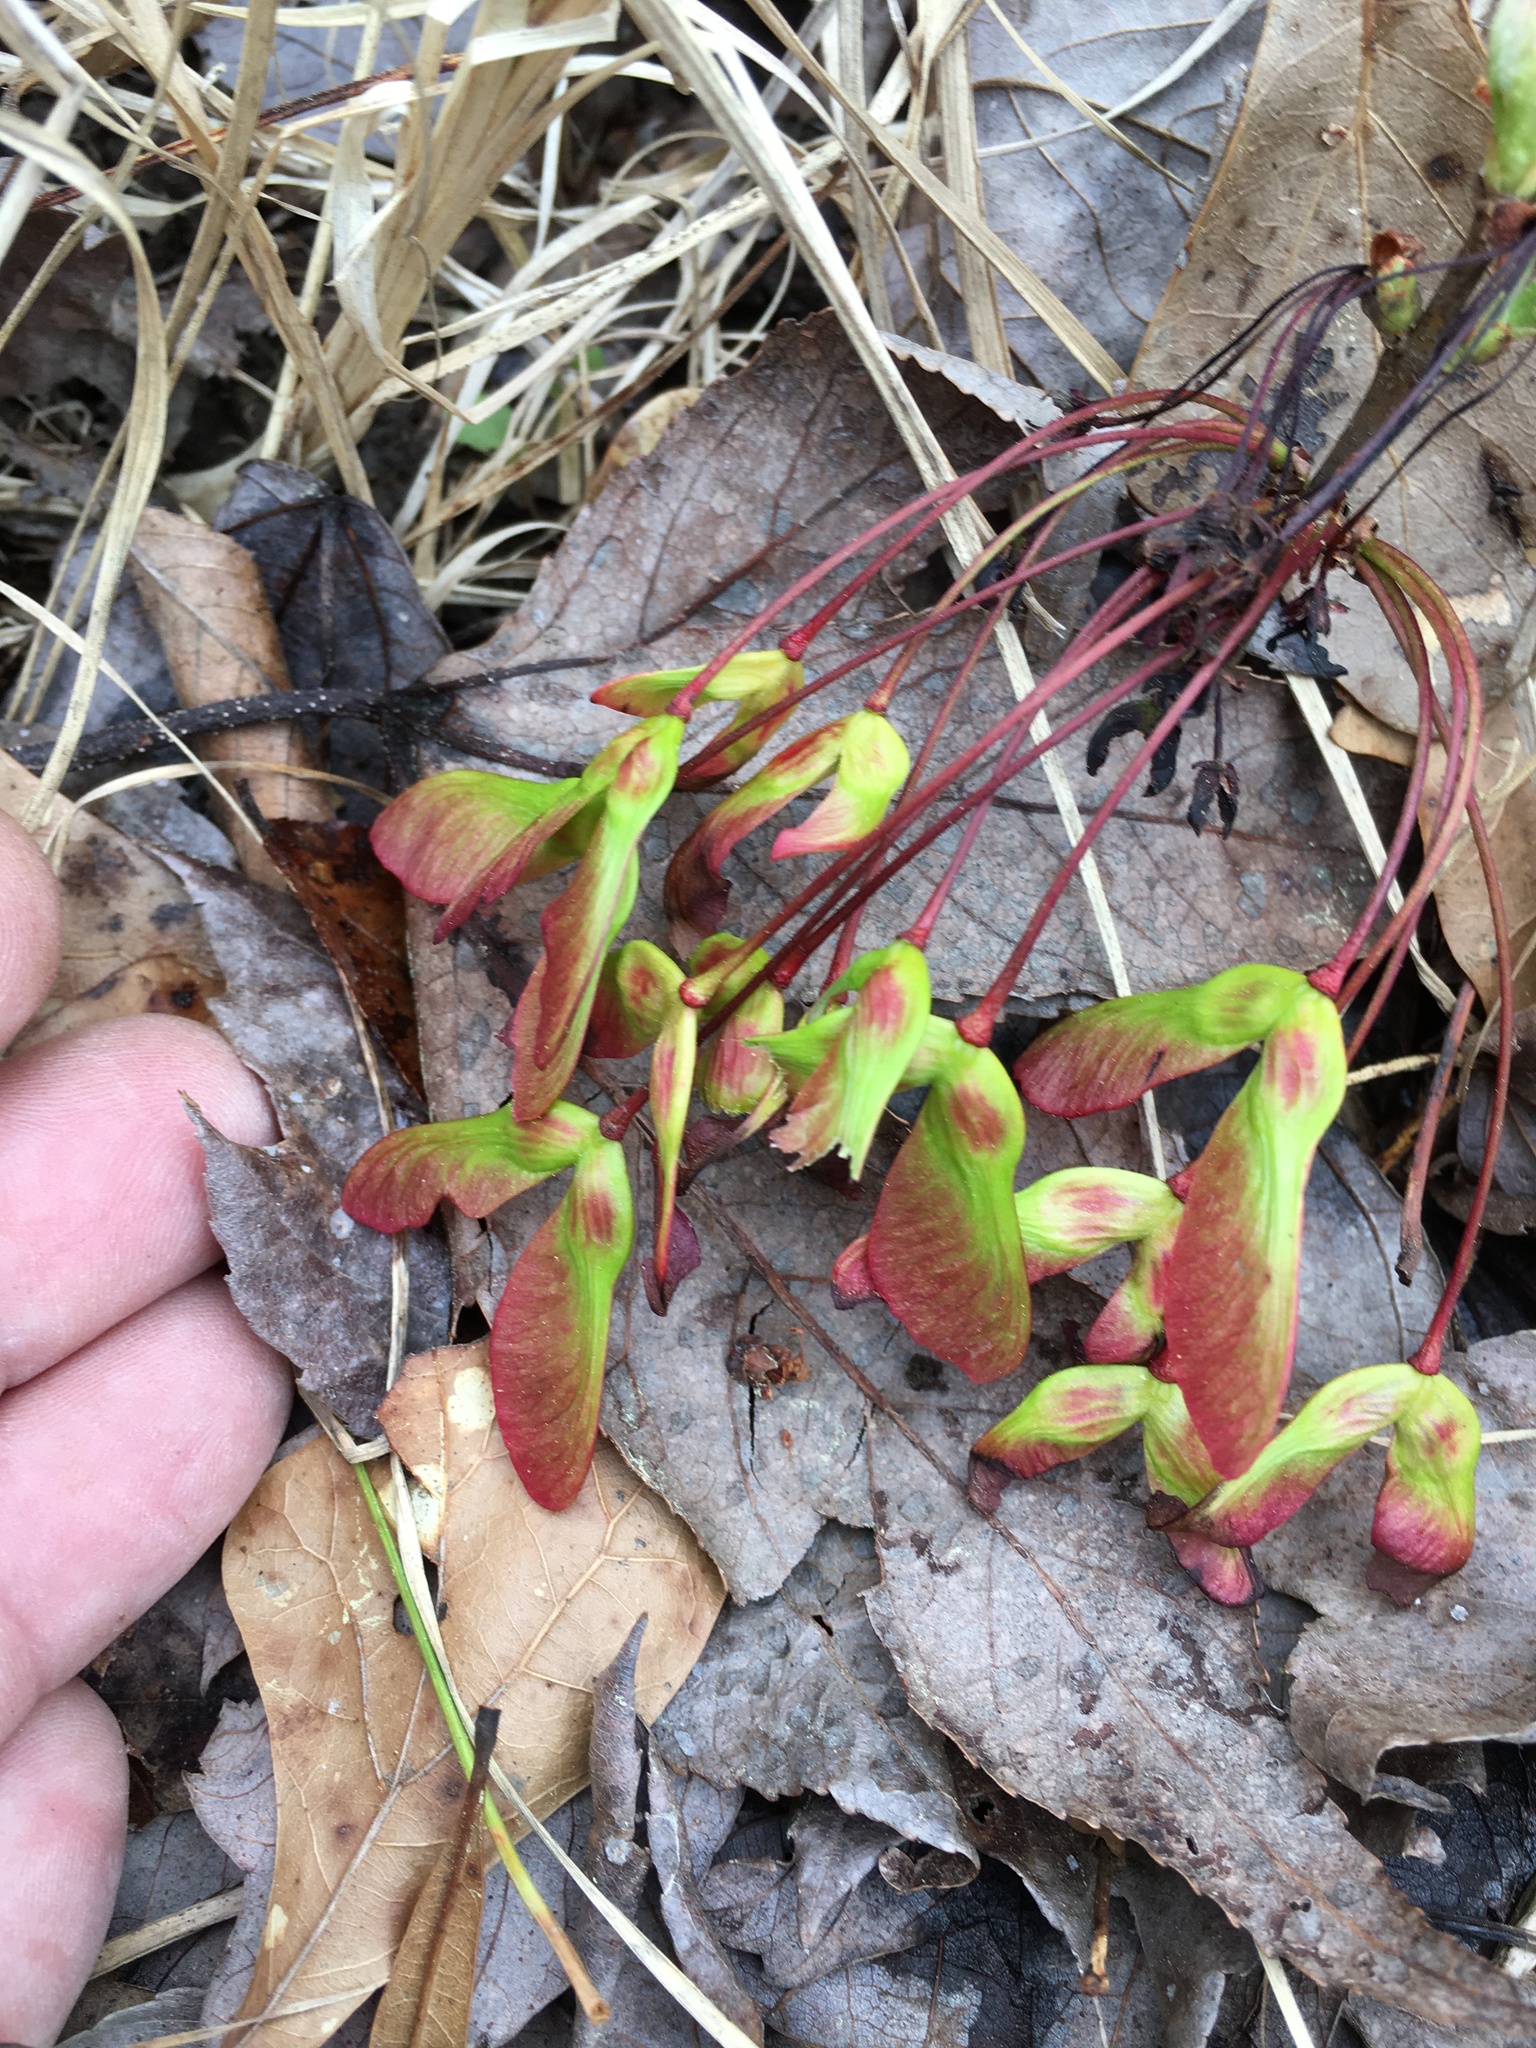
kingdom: Plantae
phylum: Tracheophyta
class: Magnoliopsida
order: Sapindales
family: Sapindaceae
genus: Acer
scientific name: Acer rubrum
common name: Red maple
